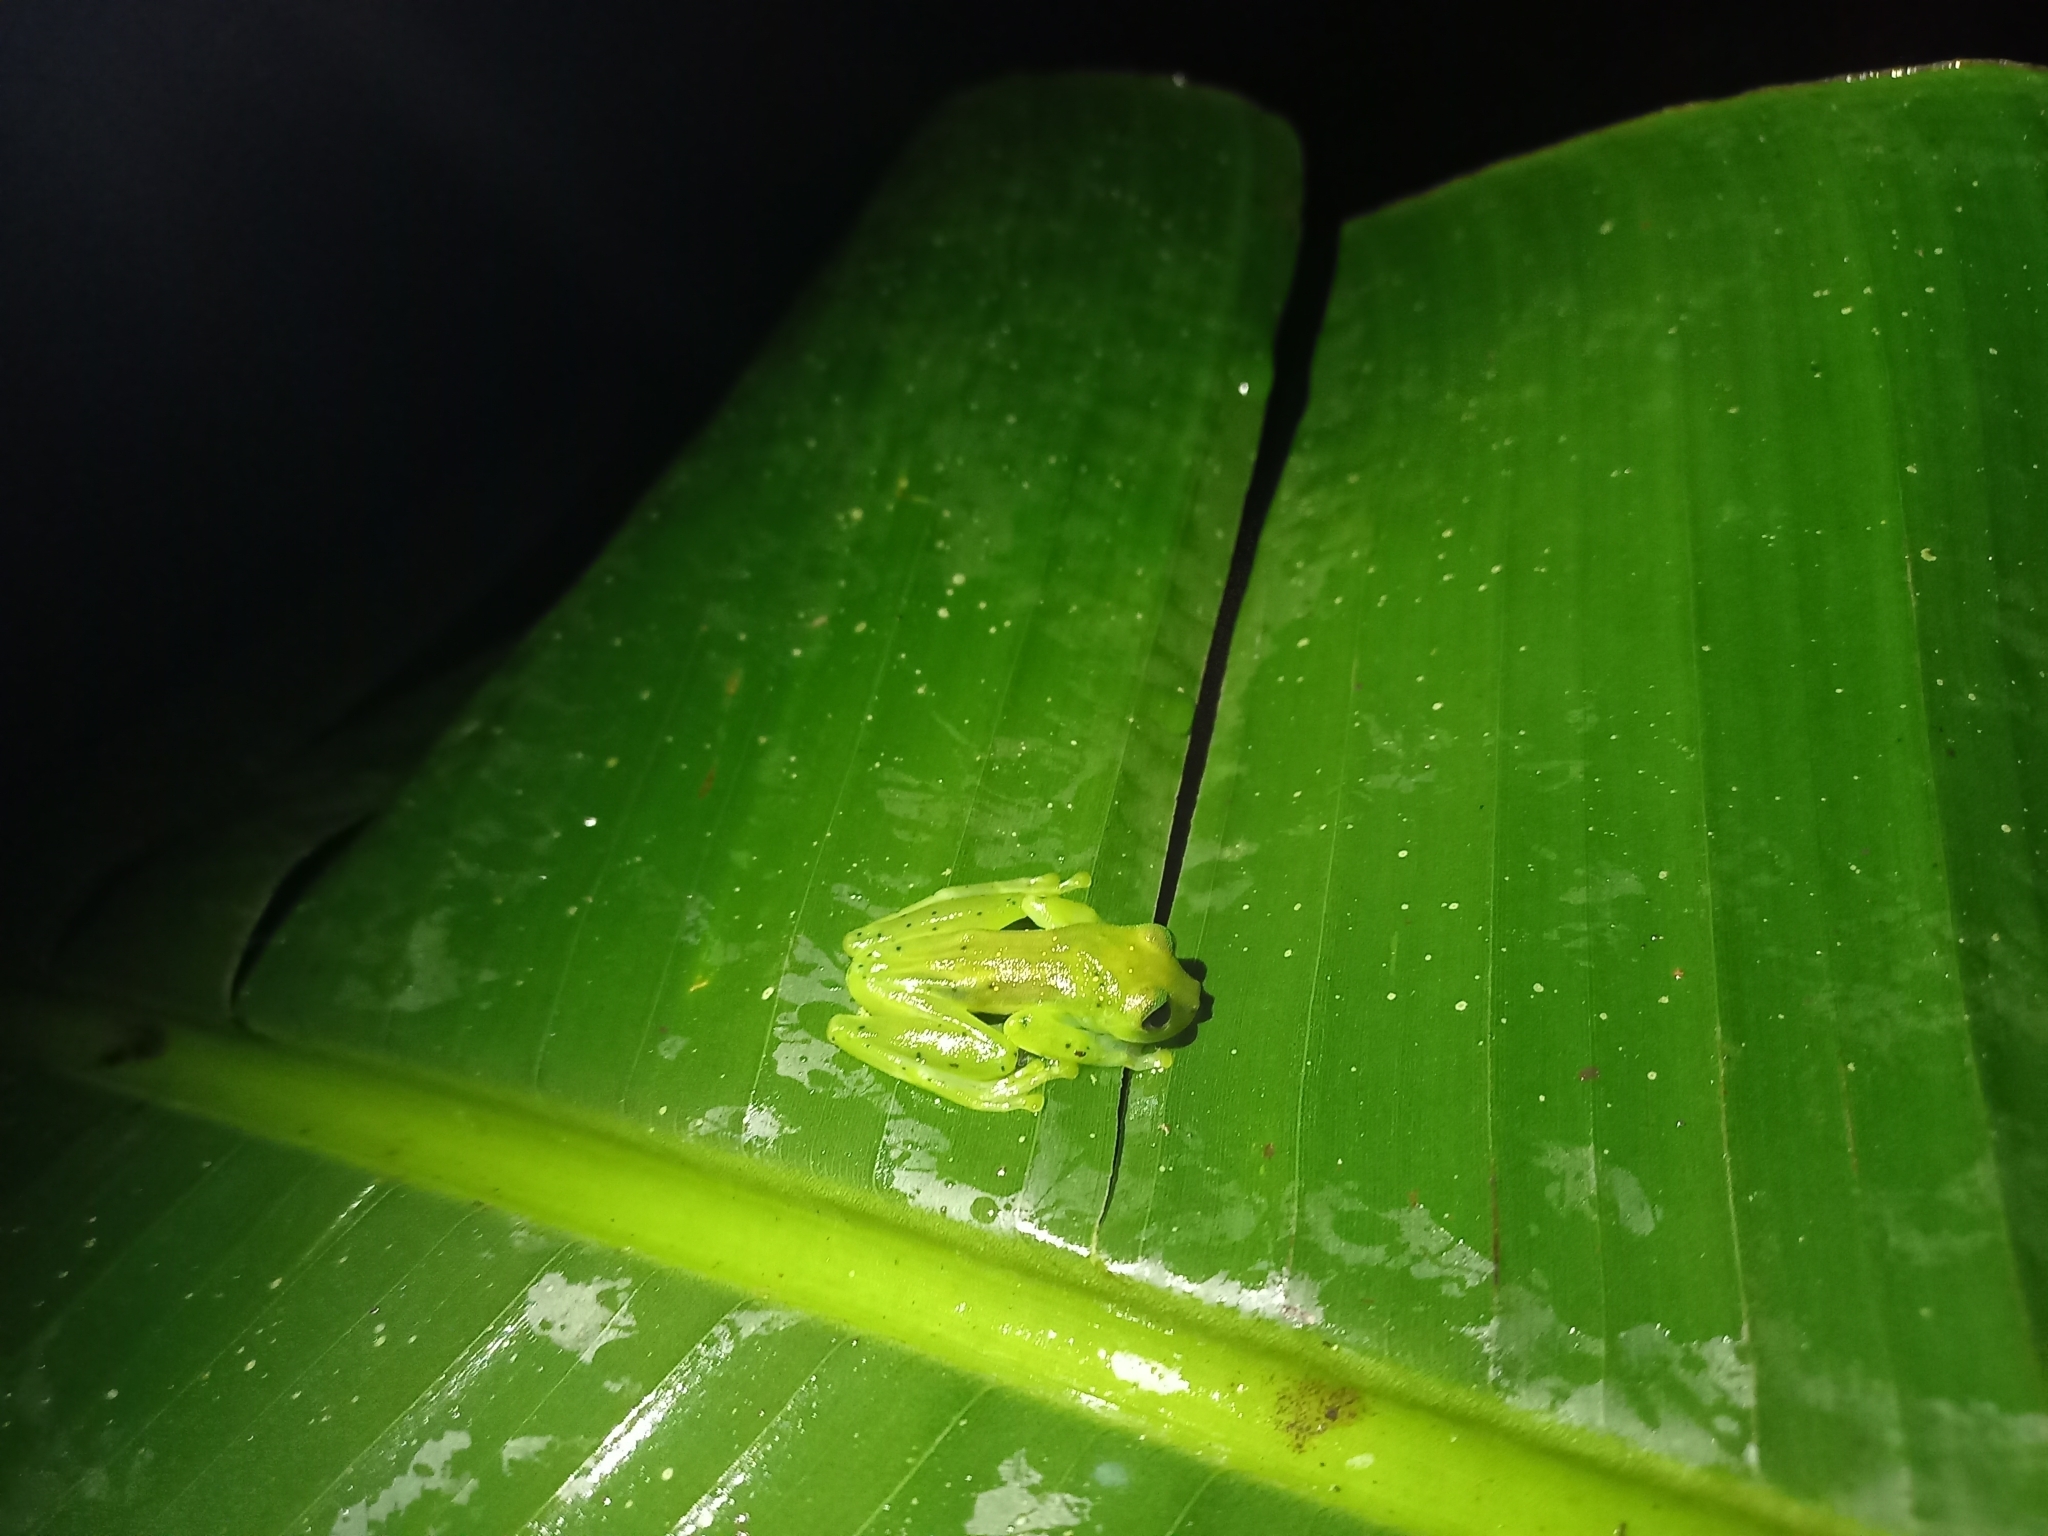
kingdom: Animalia
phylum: Chordata
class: Amphibia
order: Anura
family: Centrolenidae
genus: Espadarana
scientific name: Espadarana prosoblepon
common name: Rana de cristal variable
